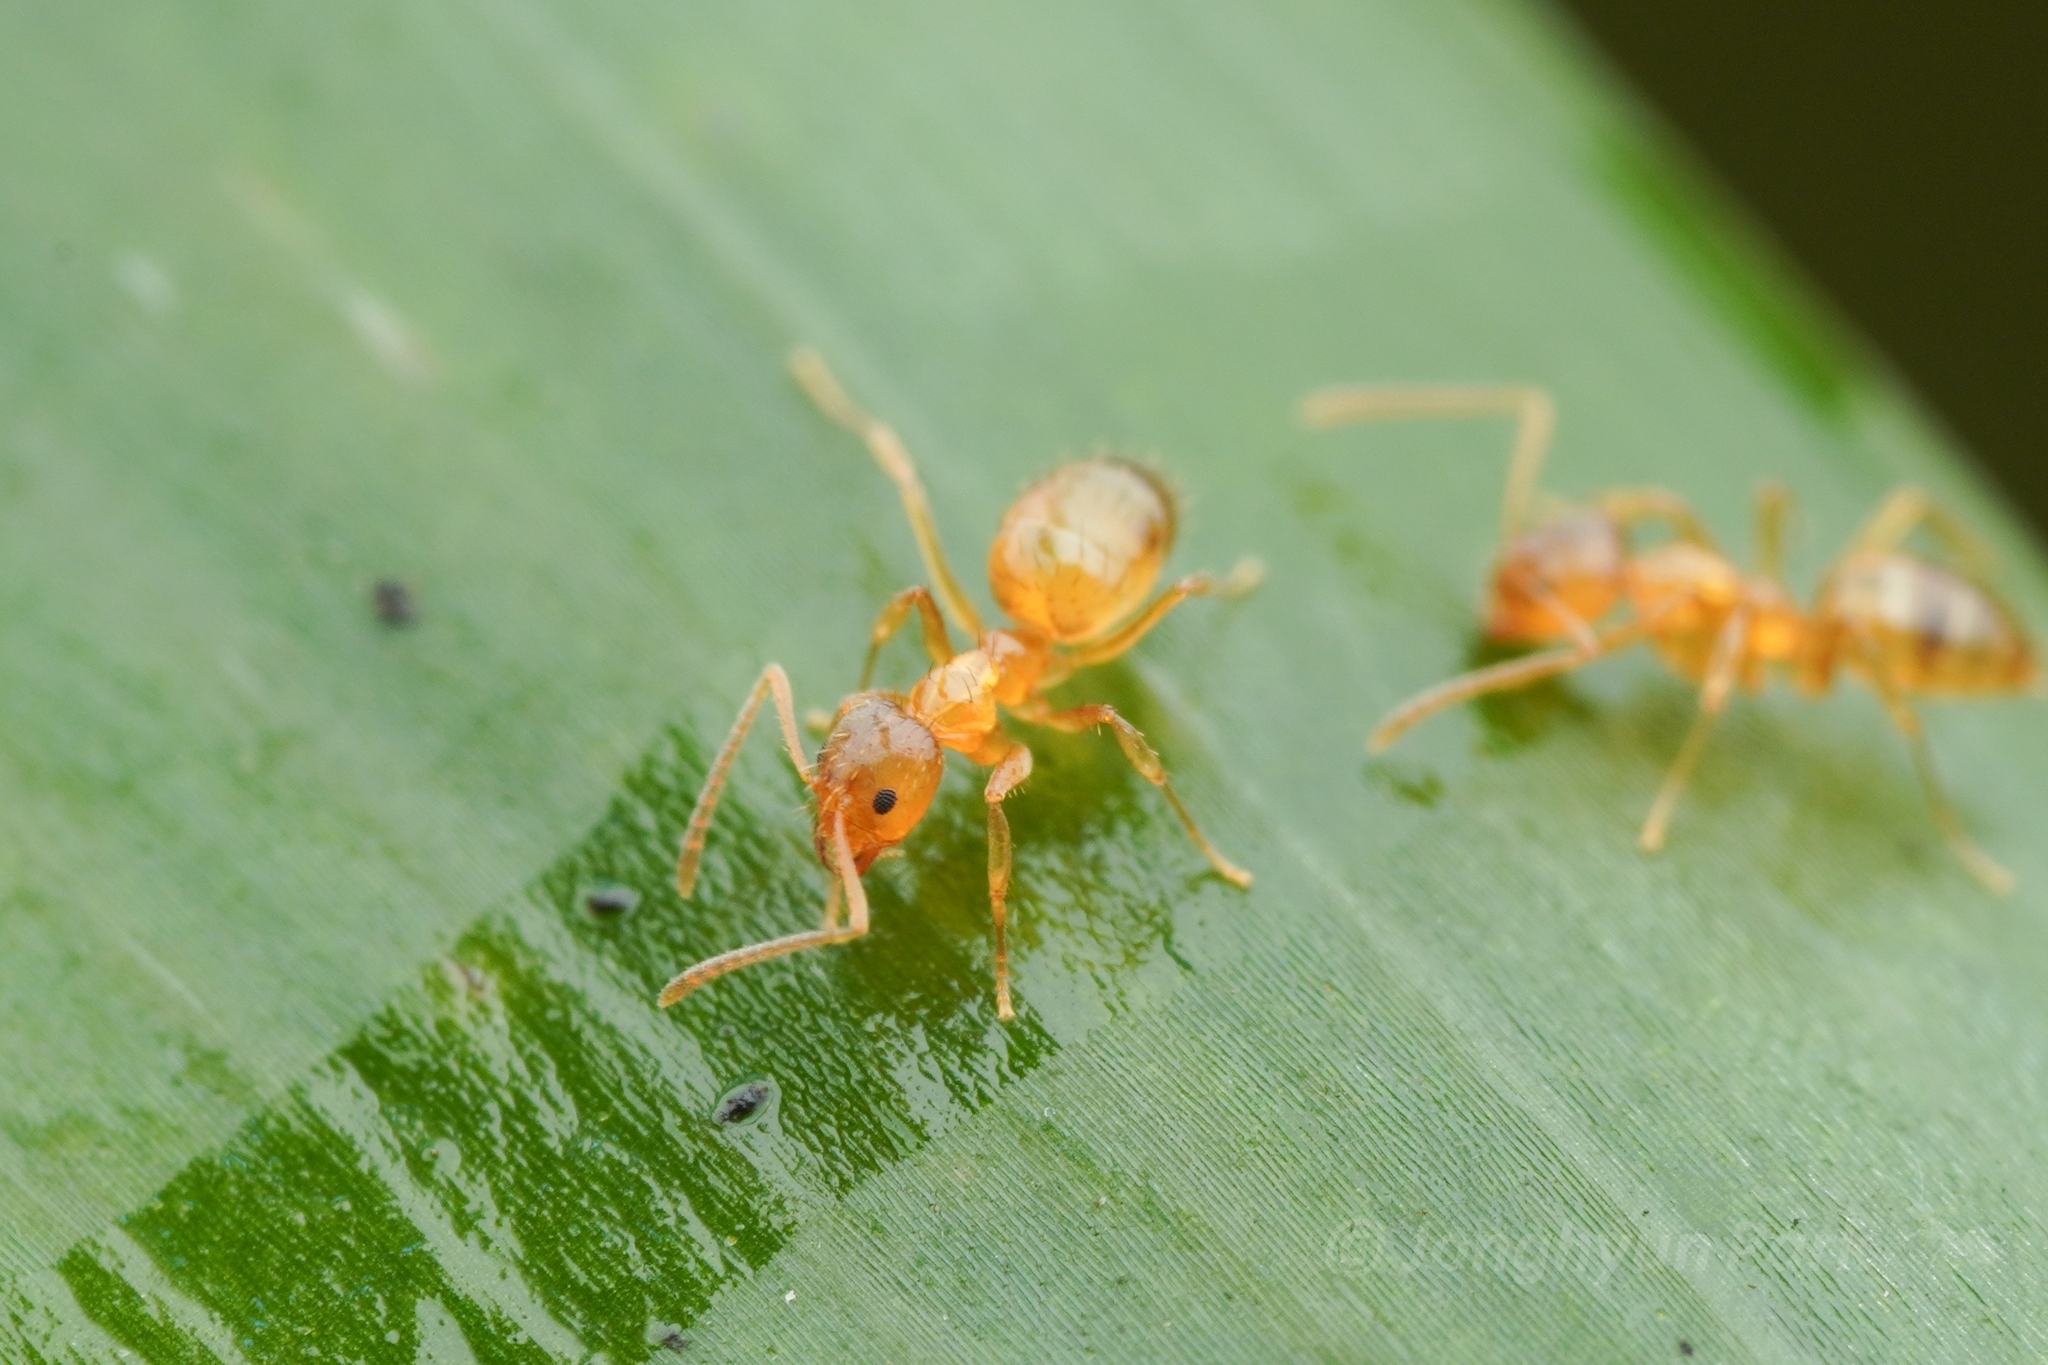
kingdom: Animalia
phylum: Arthropoda
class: Insecta
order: Hymenoptera
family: Formicidae
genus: Paratrechina
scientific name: Paratrechina flavipes
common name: Eastern asian formicine ant
